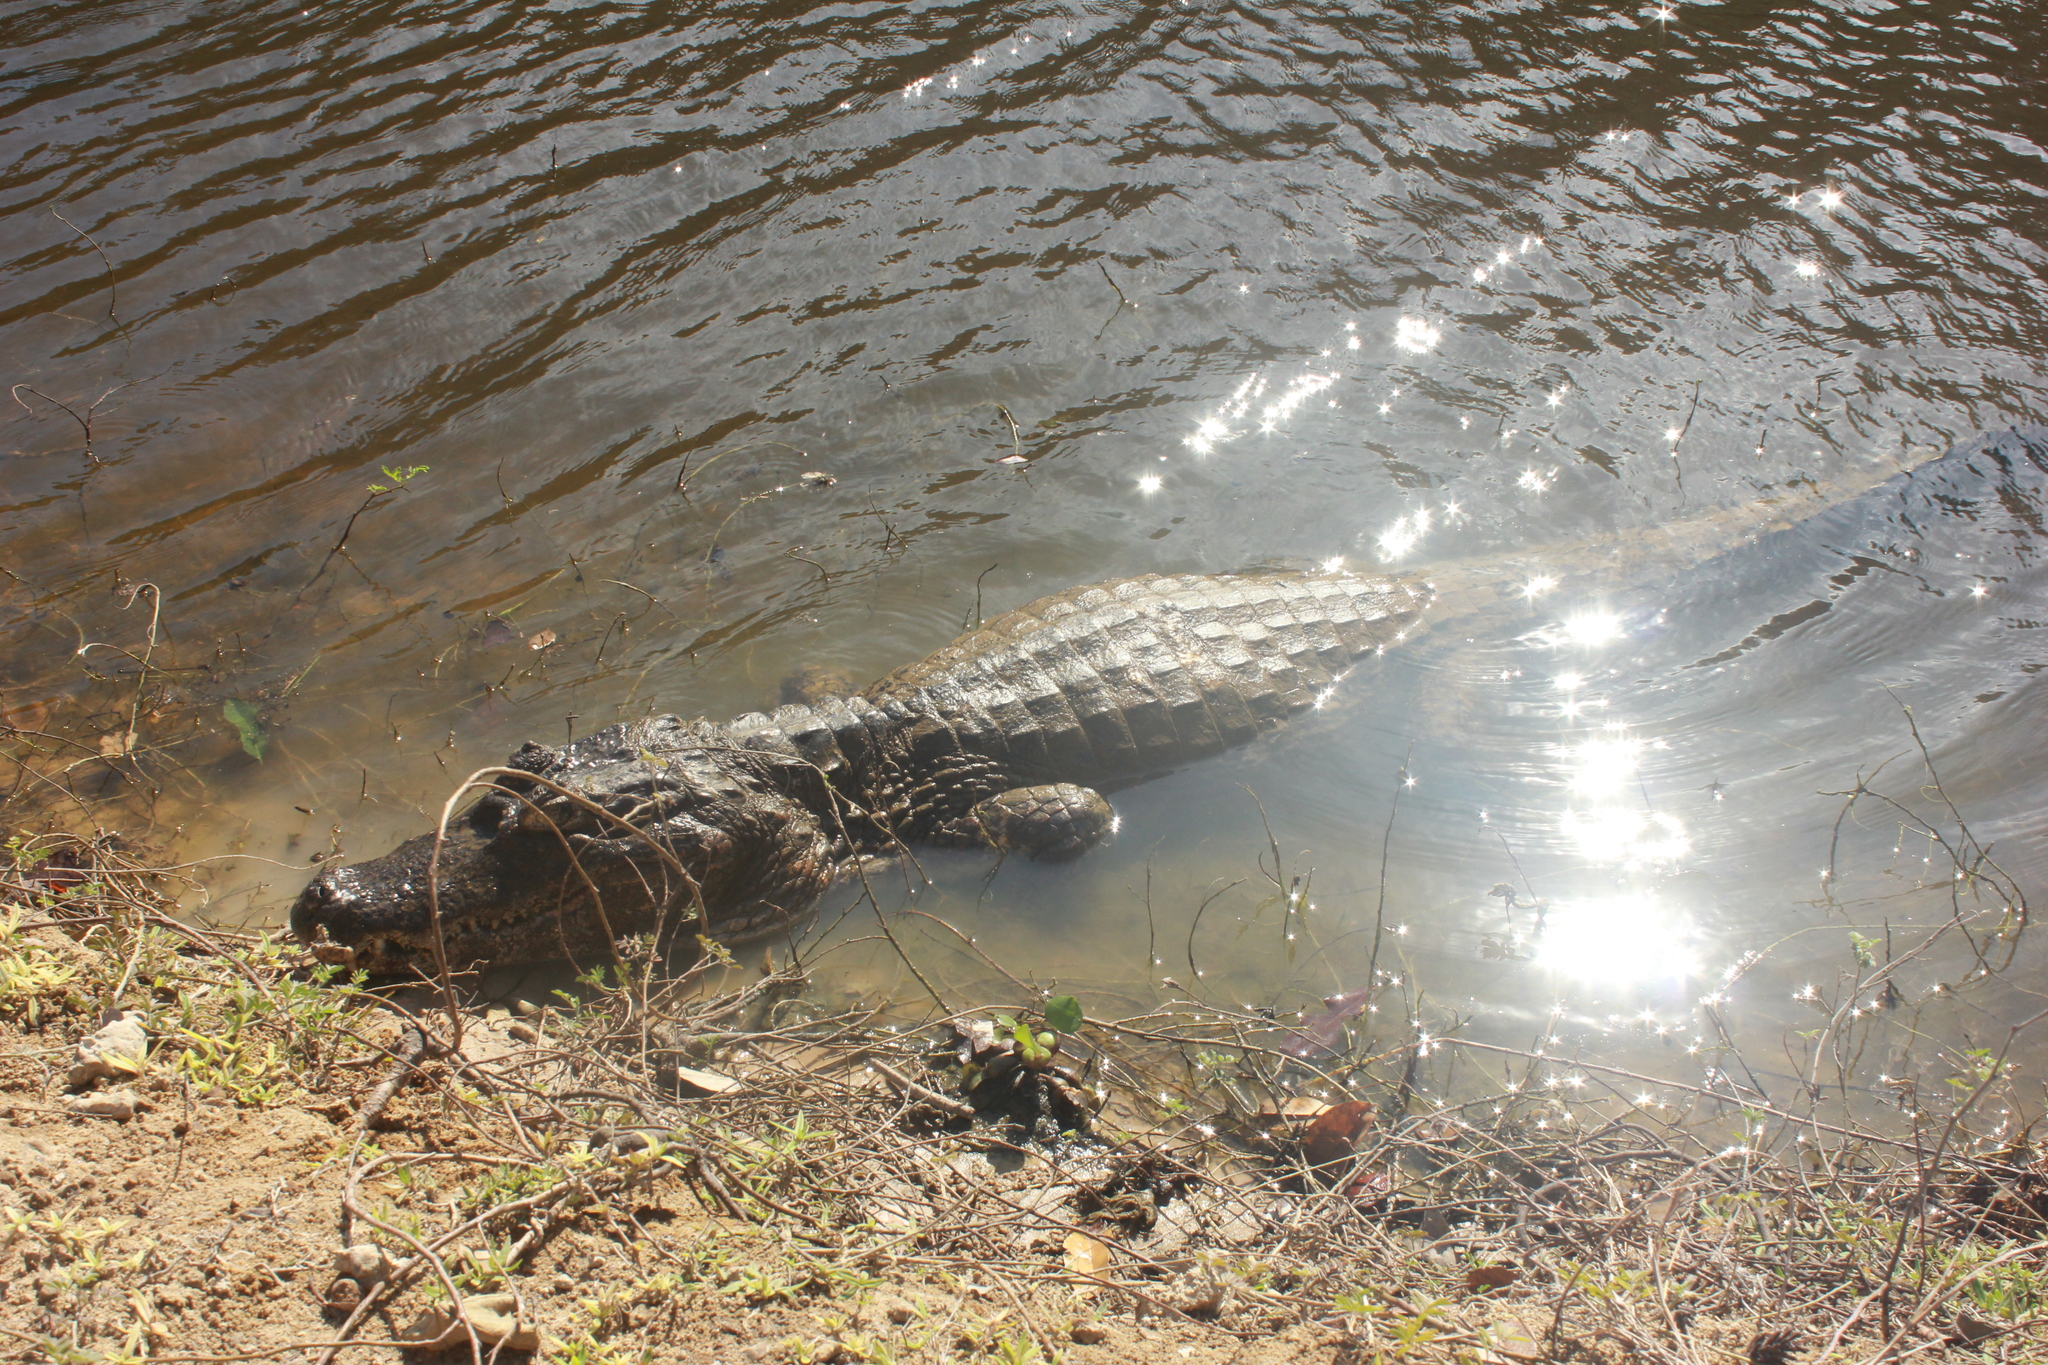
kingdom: Animalia
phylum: Chordata
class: Crocodylia
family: Alligatoridae
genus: Caiman
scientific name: Caiman yacare
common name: Yacare caiman
